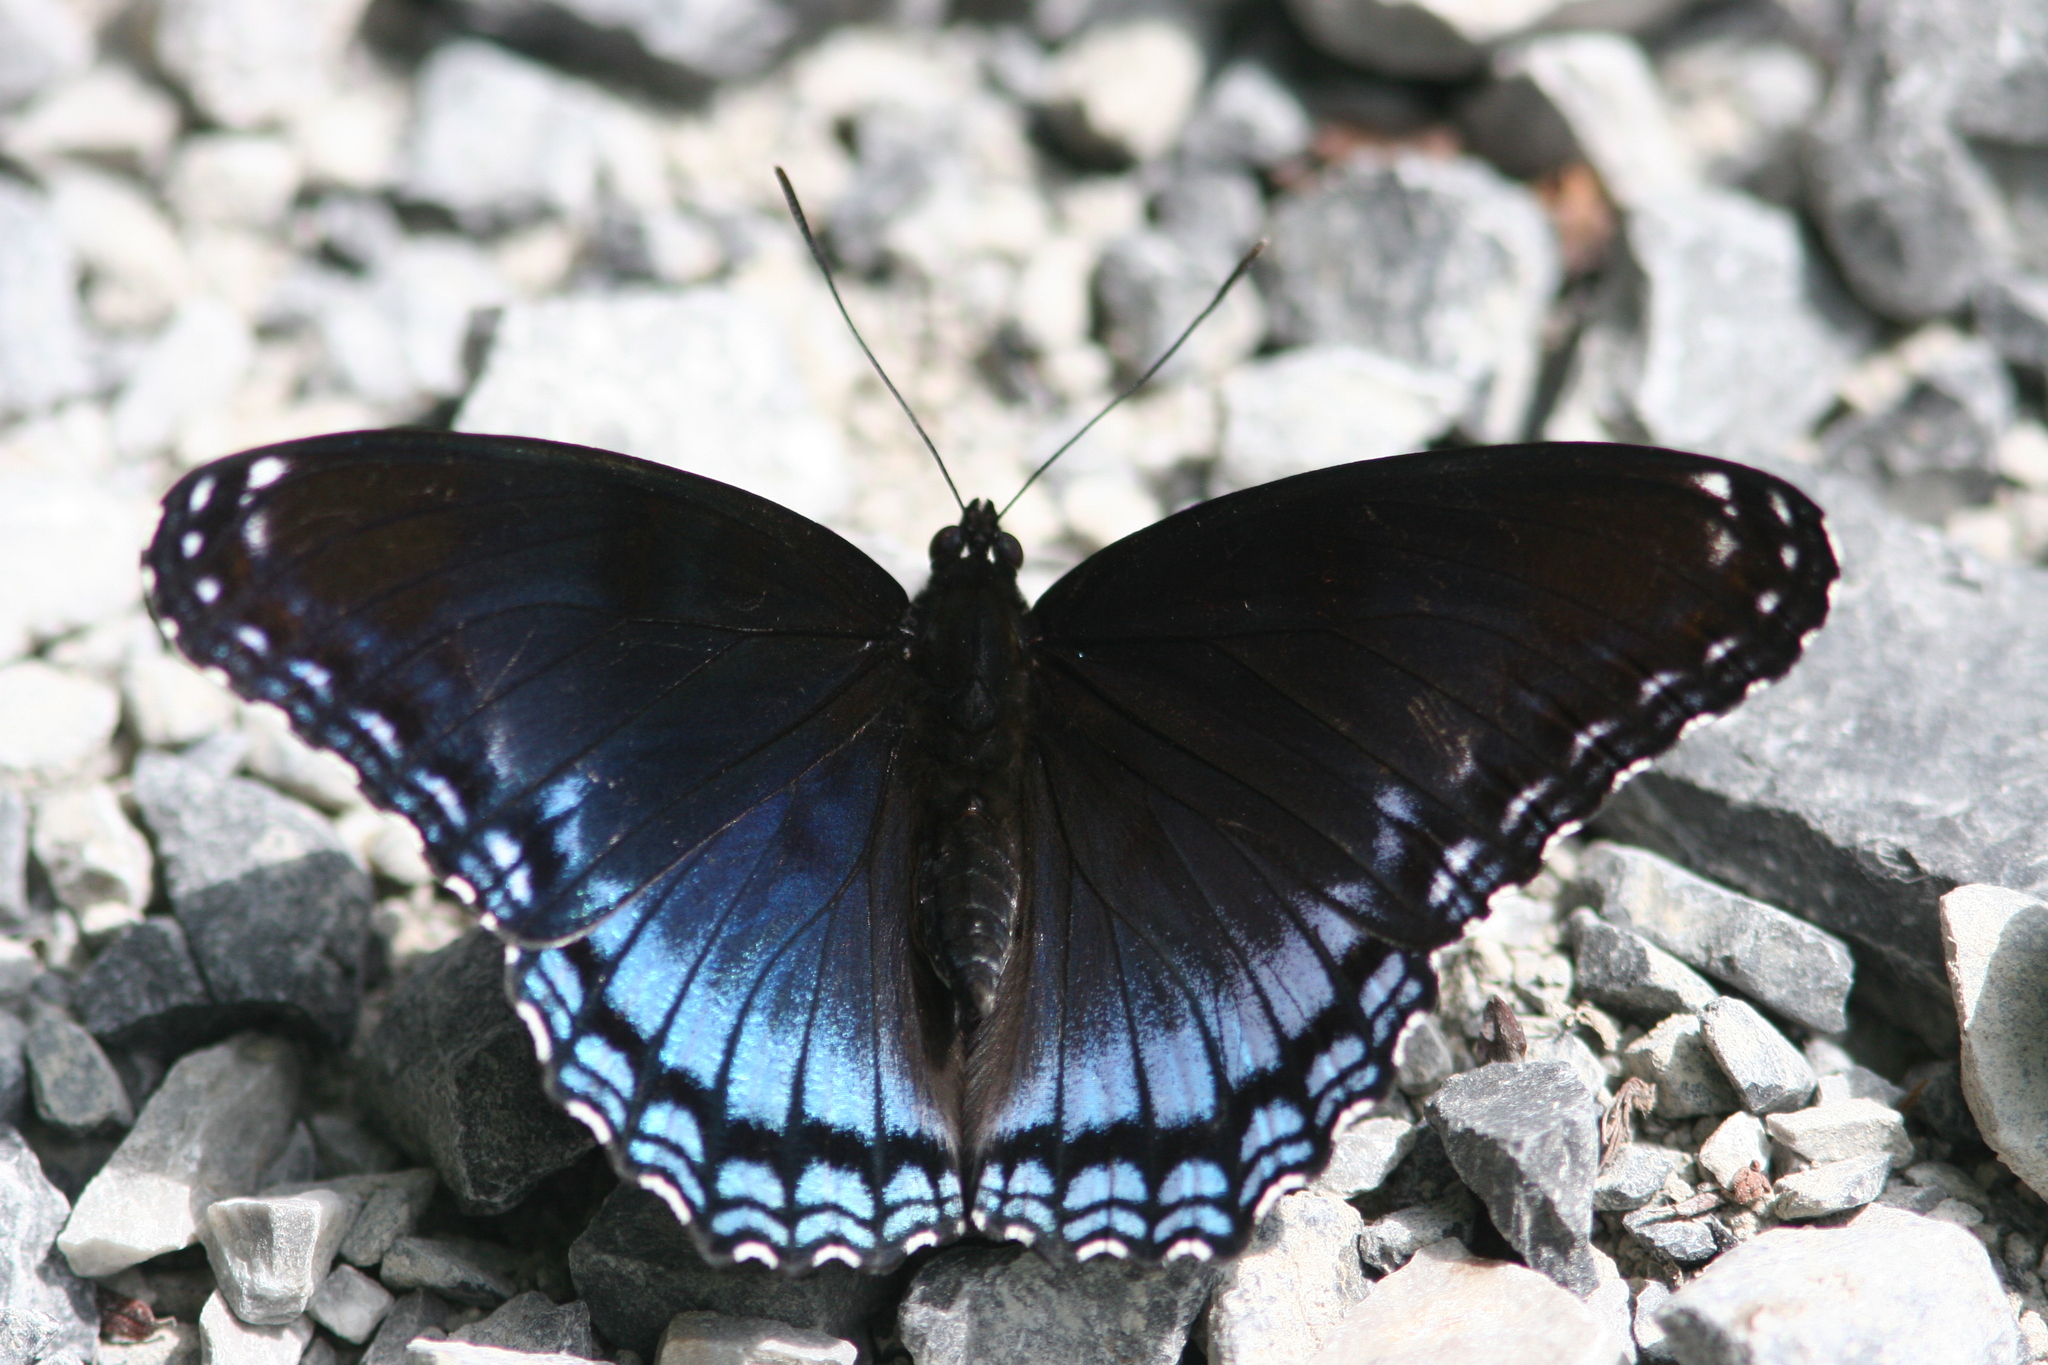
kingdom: Animalia
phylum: Arthropoda
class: Insecta
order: Lepidoptera
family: Nymphalidae
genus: Limenitis
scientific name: Limenitis arthemis
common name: Red-spotted admiral
